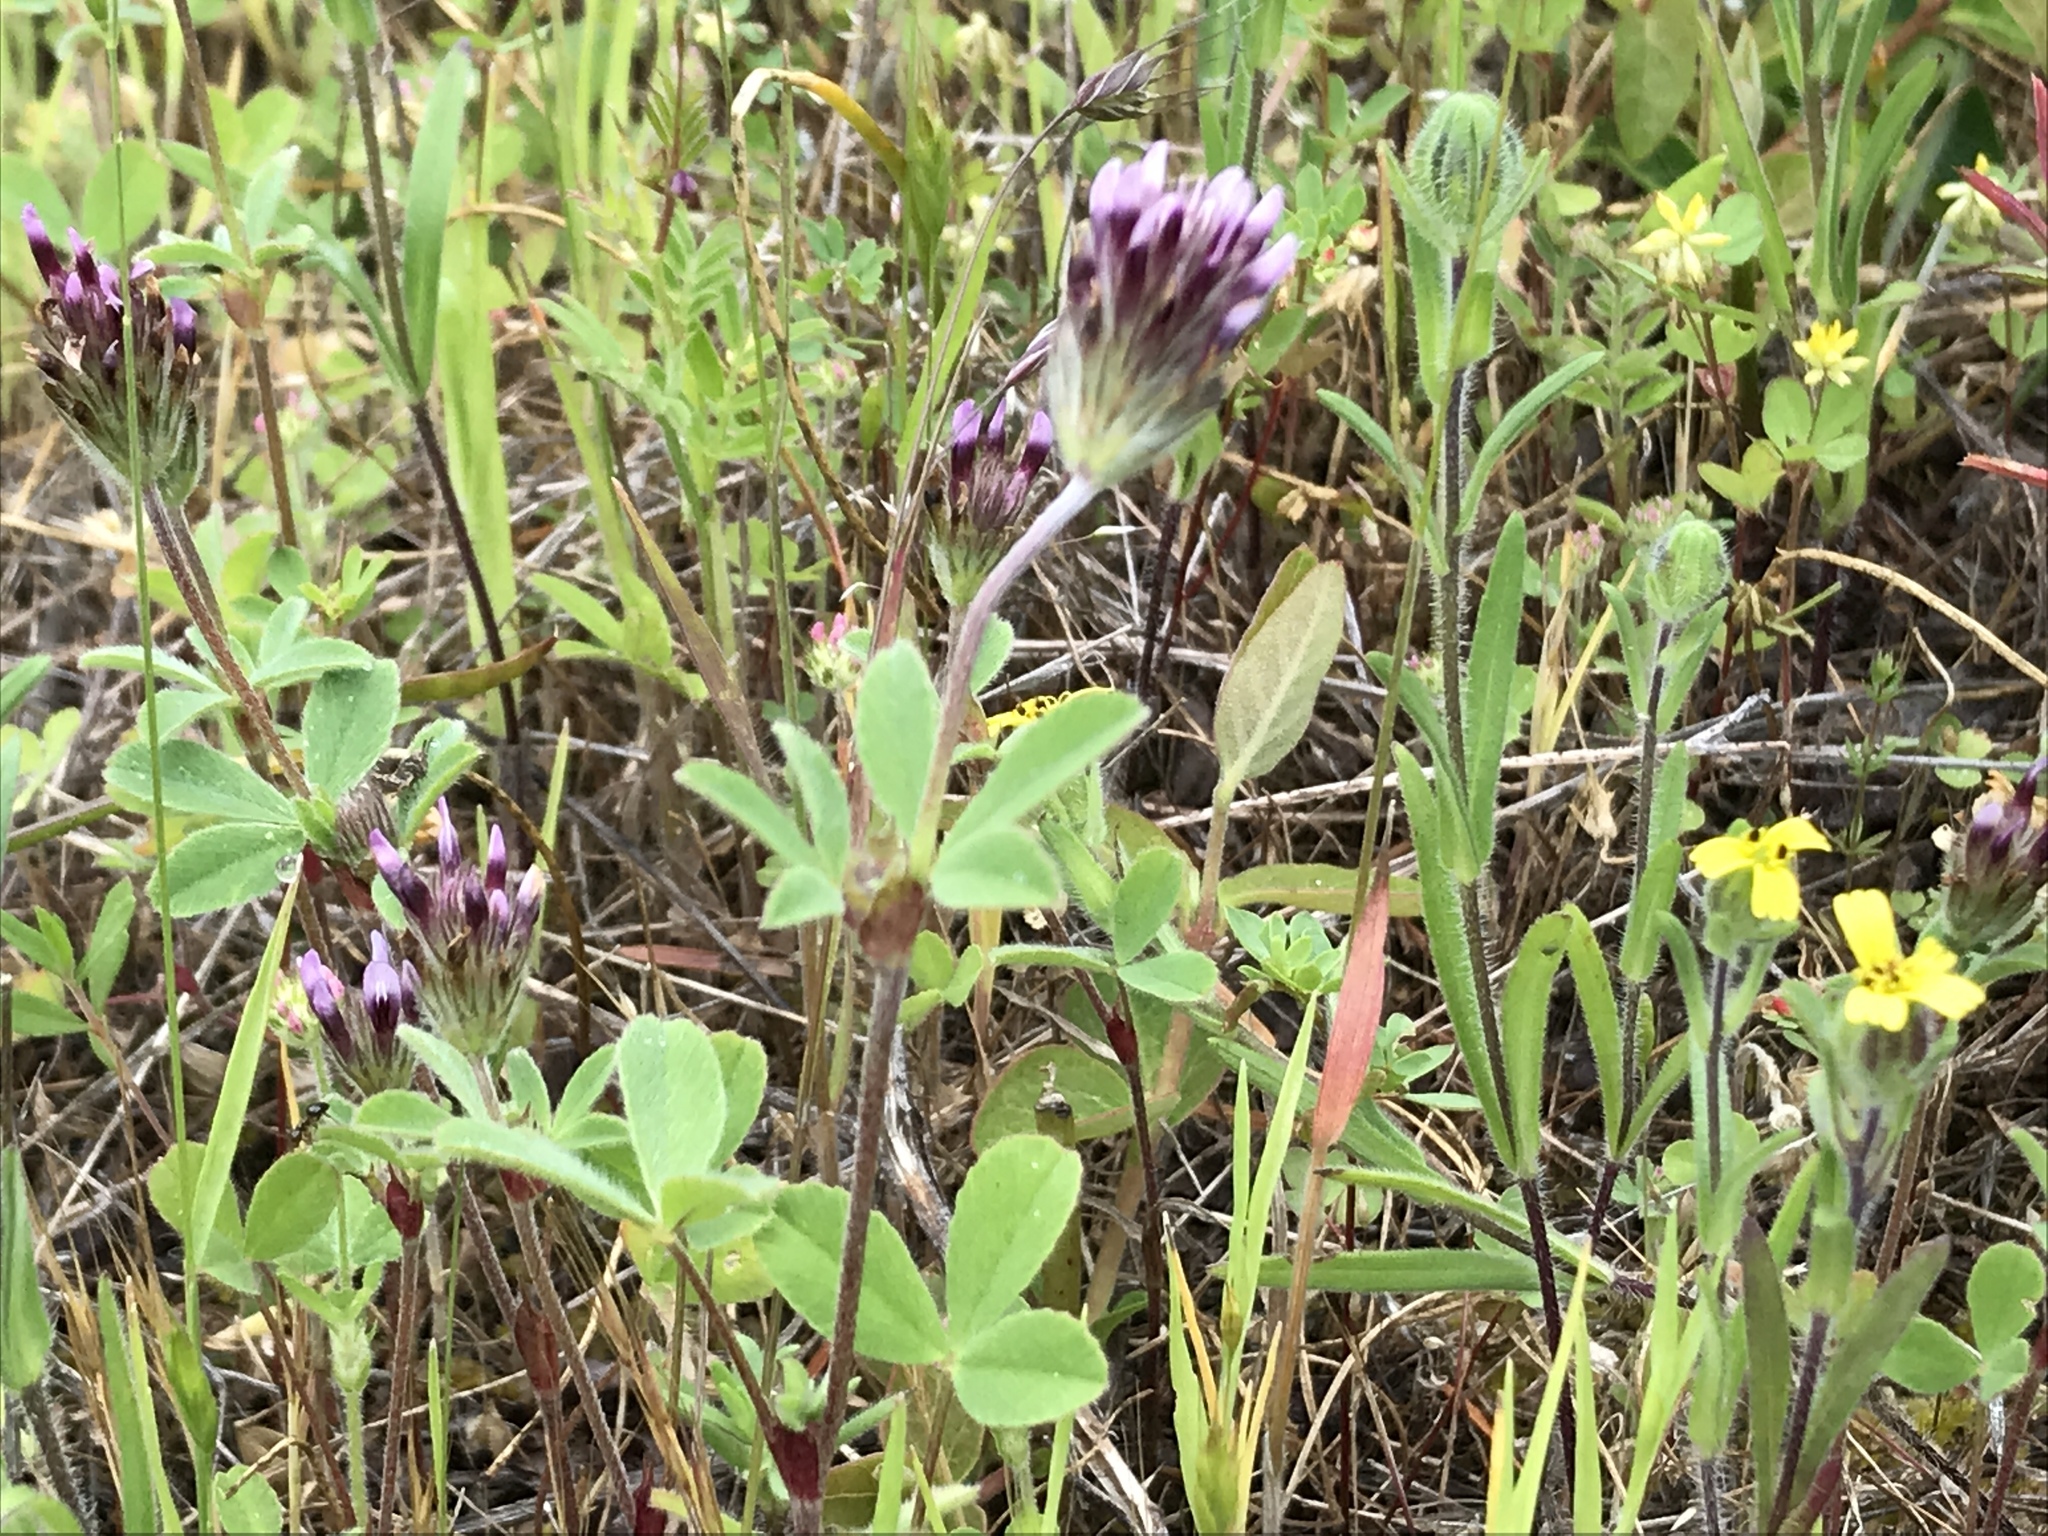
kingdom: Plantae
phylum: Tracheophyta
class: Magnoliopsida
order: Fabales
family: Fabaceae
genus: Trifolium
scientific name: Trifolium dichotomum
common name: Branched indian clover
